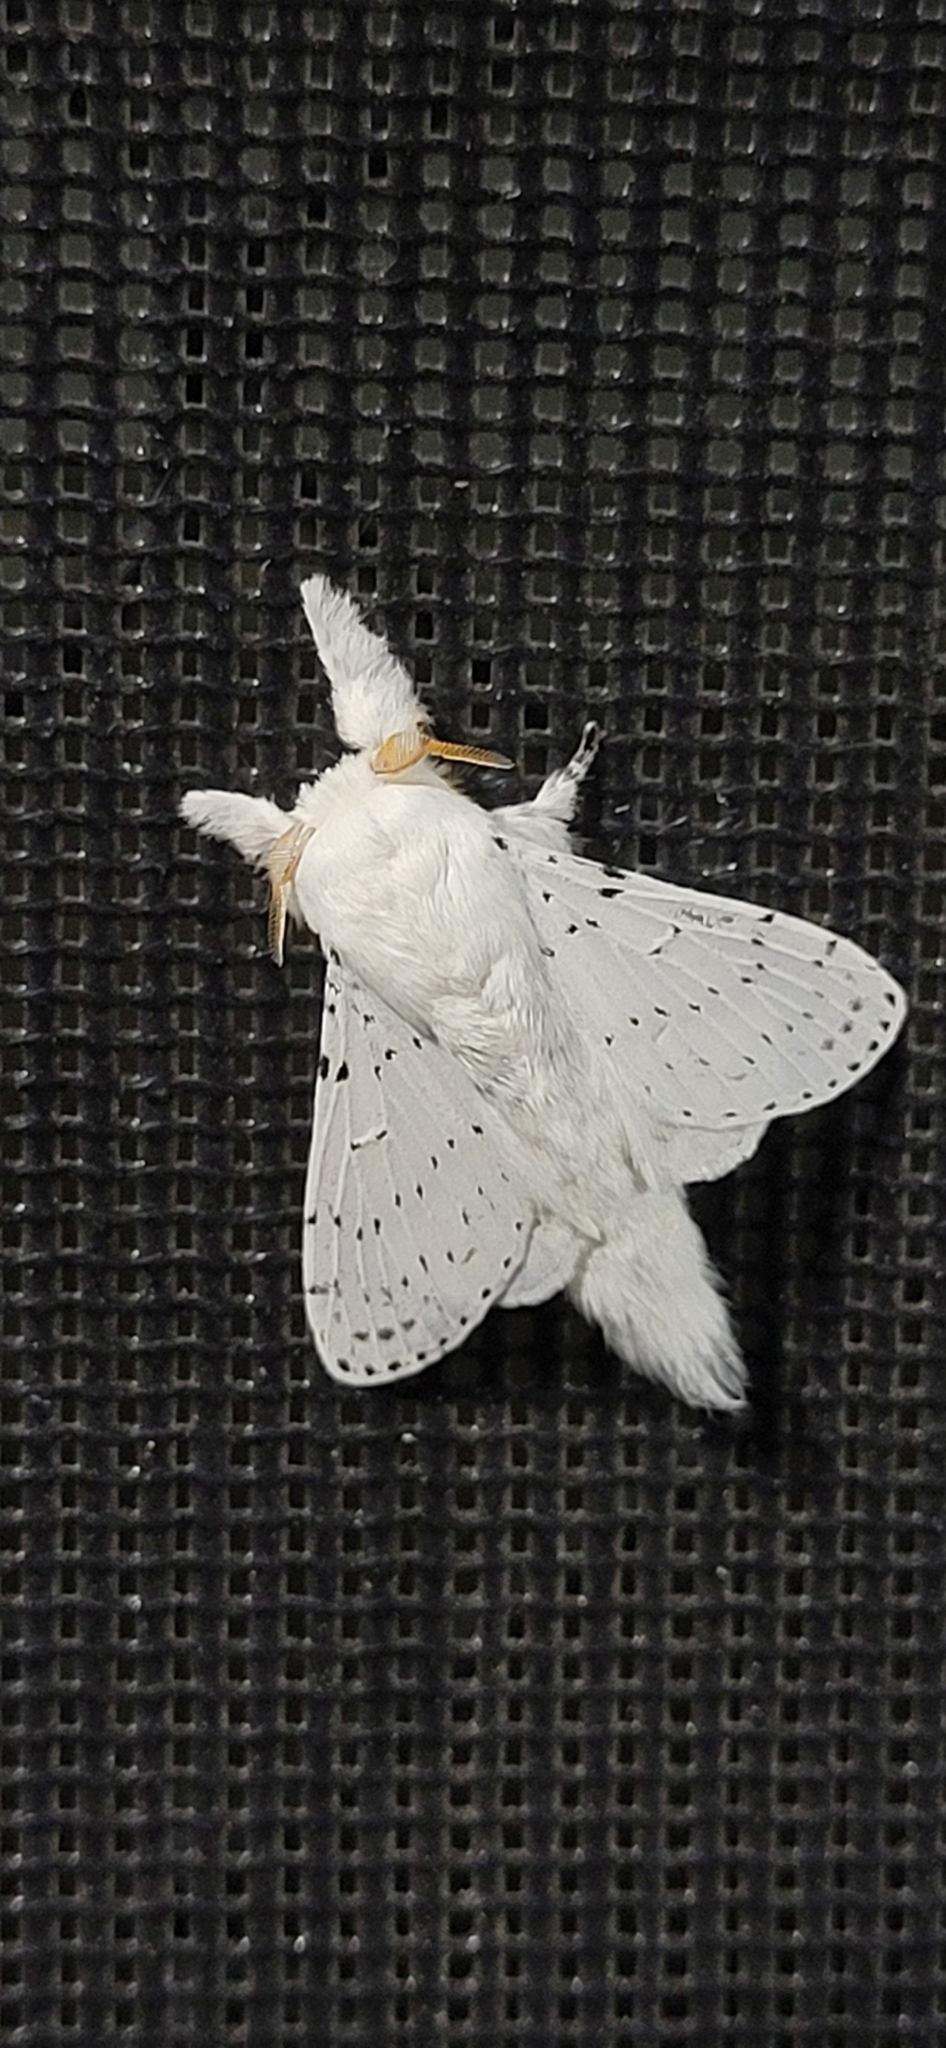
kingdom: Animalia
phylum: Arthropoda
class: Insecta
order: Lepidoptera
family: Lasiocampidae
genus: Artace
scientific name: Artace cribrarius
